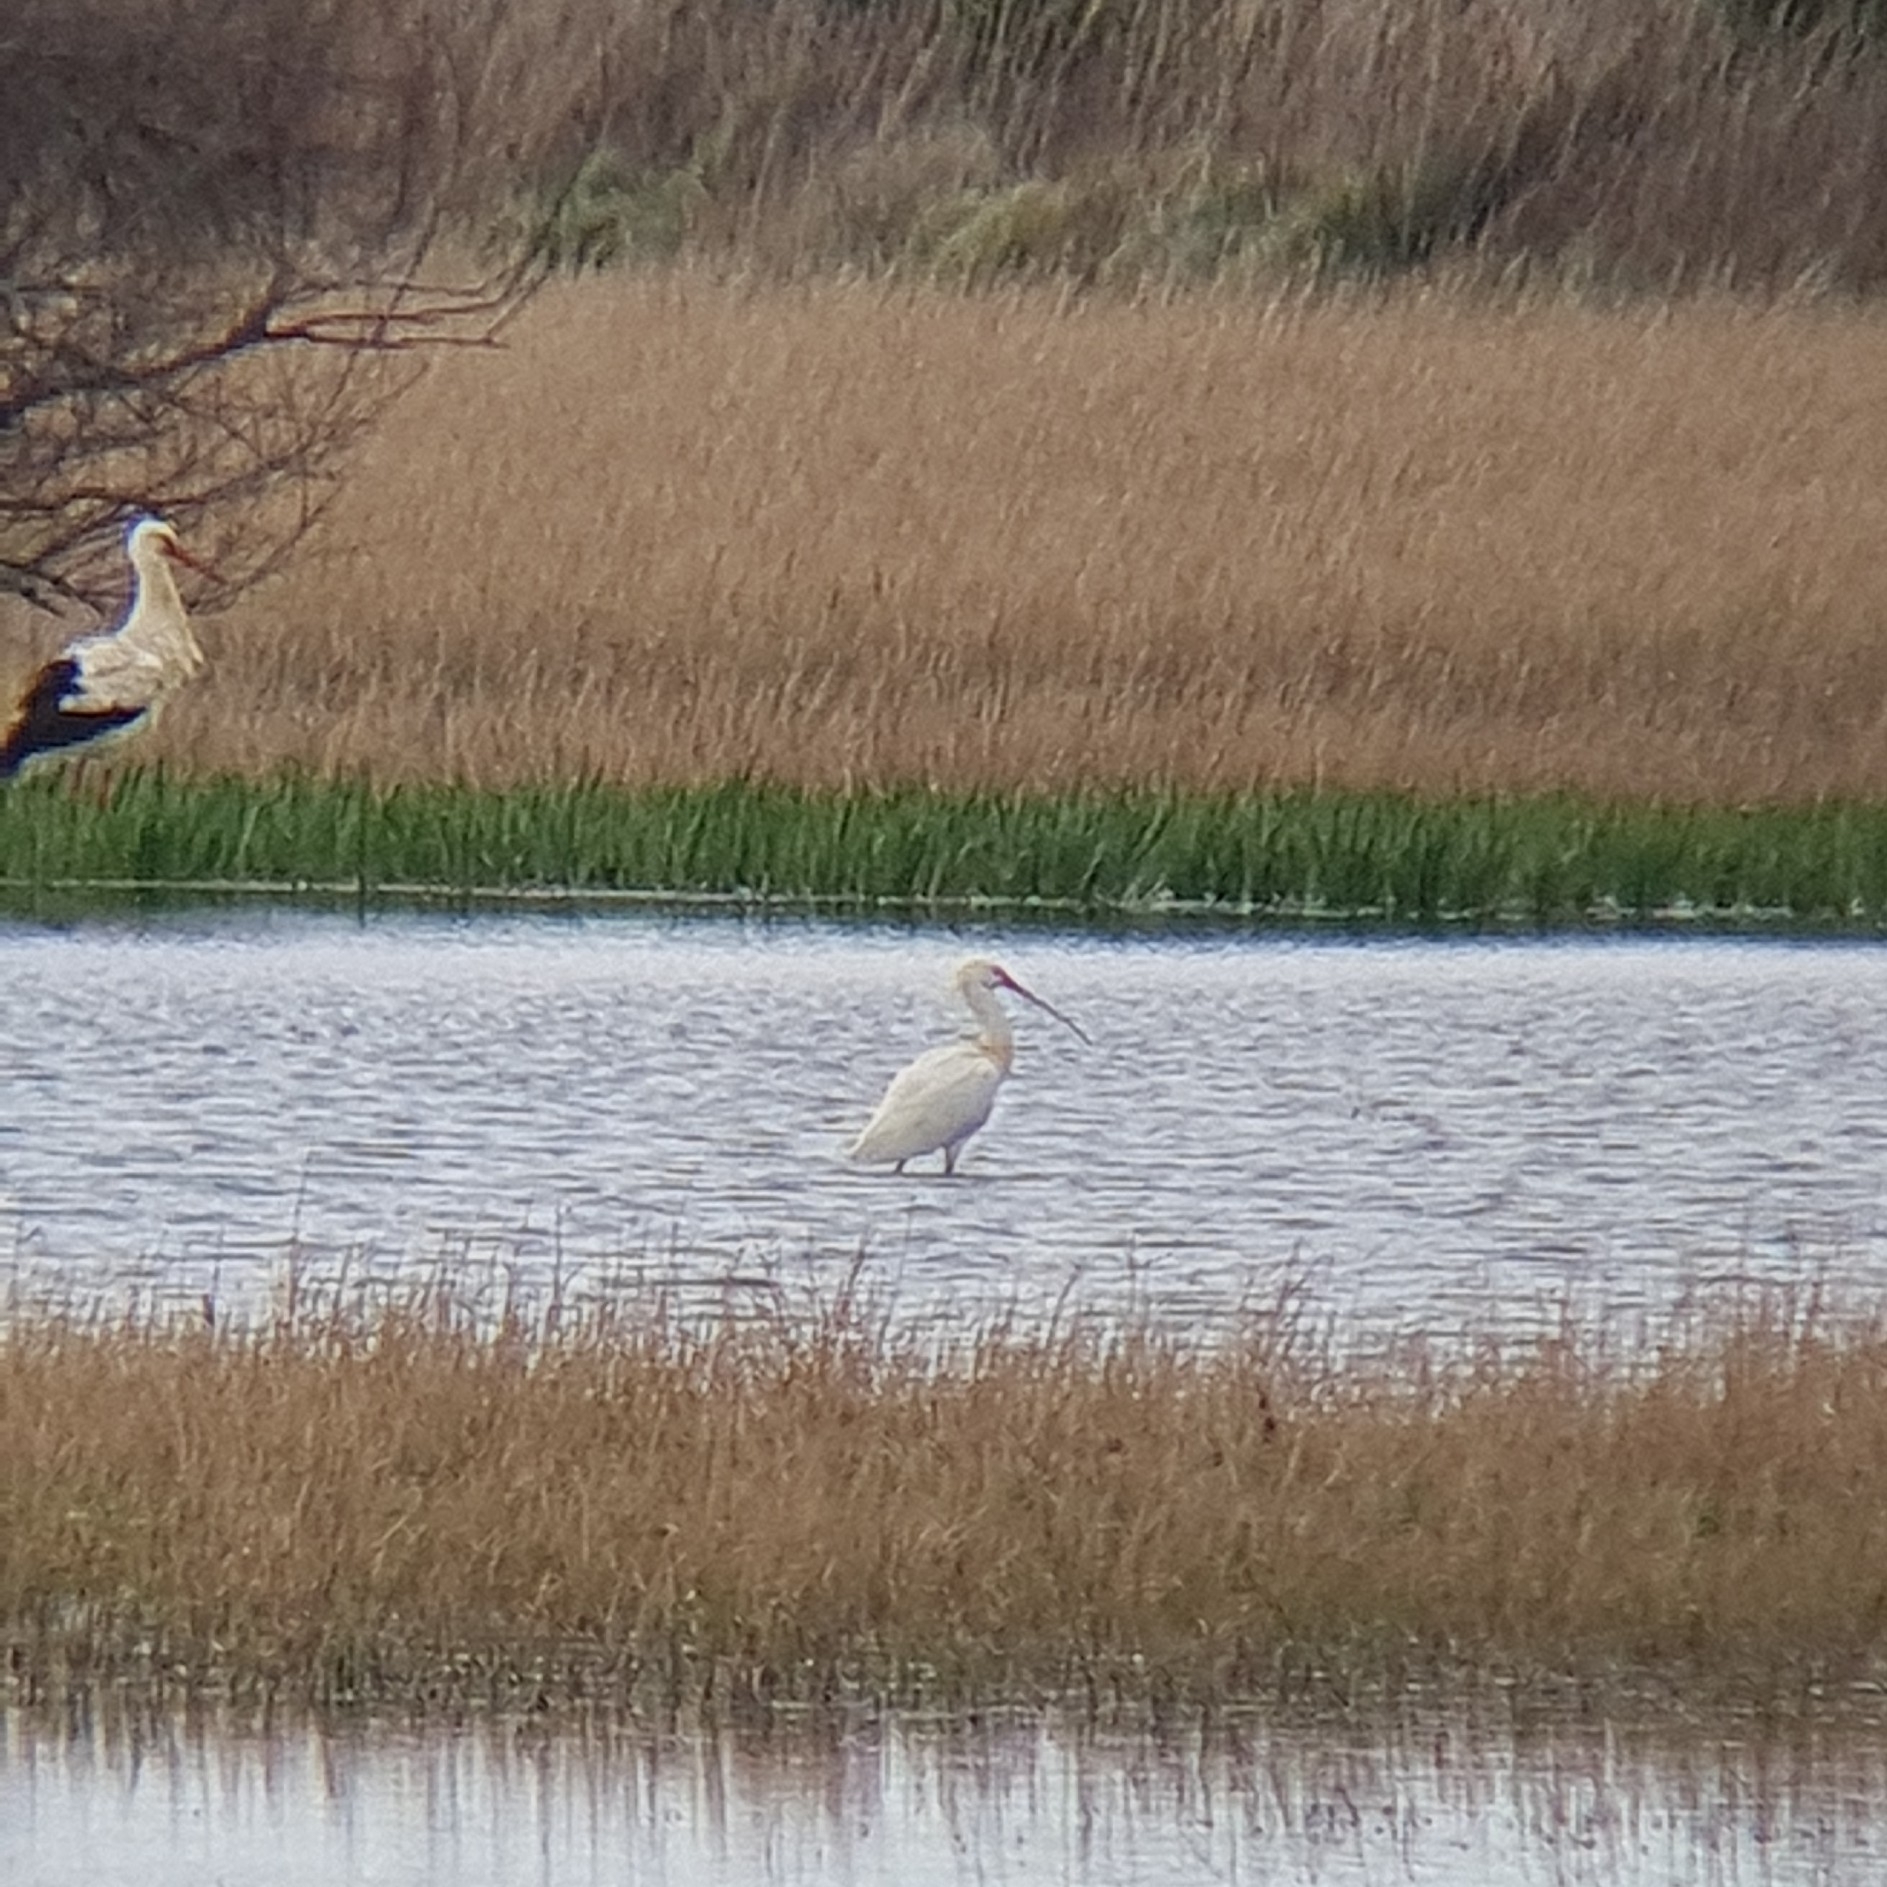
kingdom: Animalia
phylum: Chordata
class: Aves
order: Pelecaniformes
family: Threskiornithidae
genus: Platalea
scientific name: Platalea leucorodia
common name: Eurasian spoonbill
